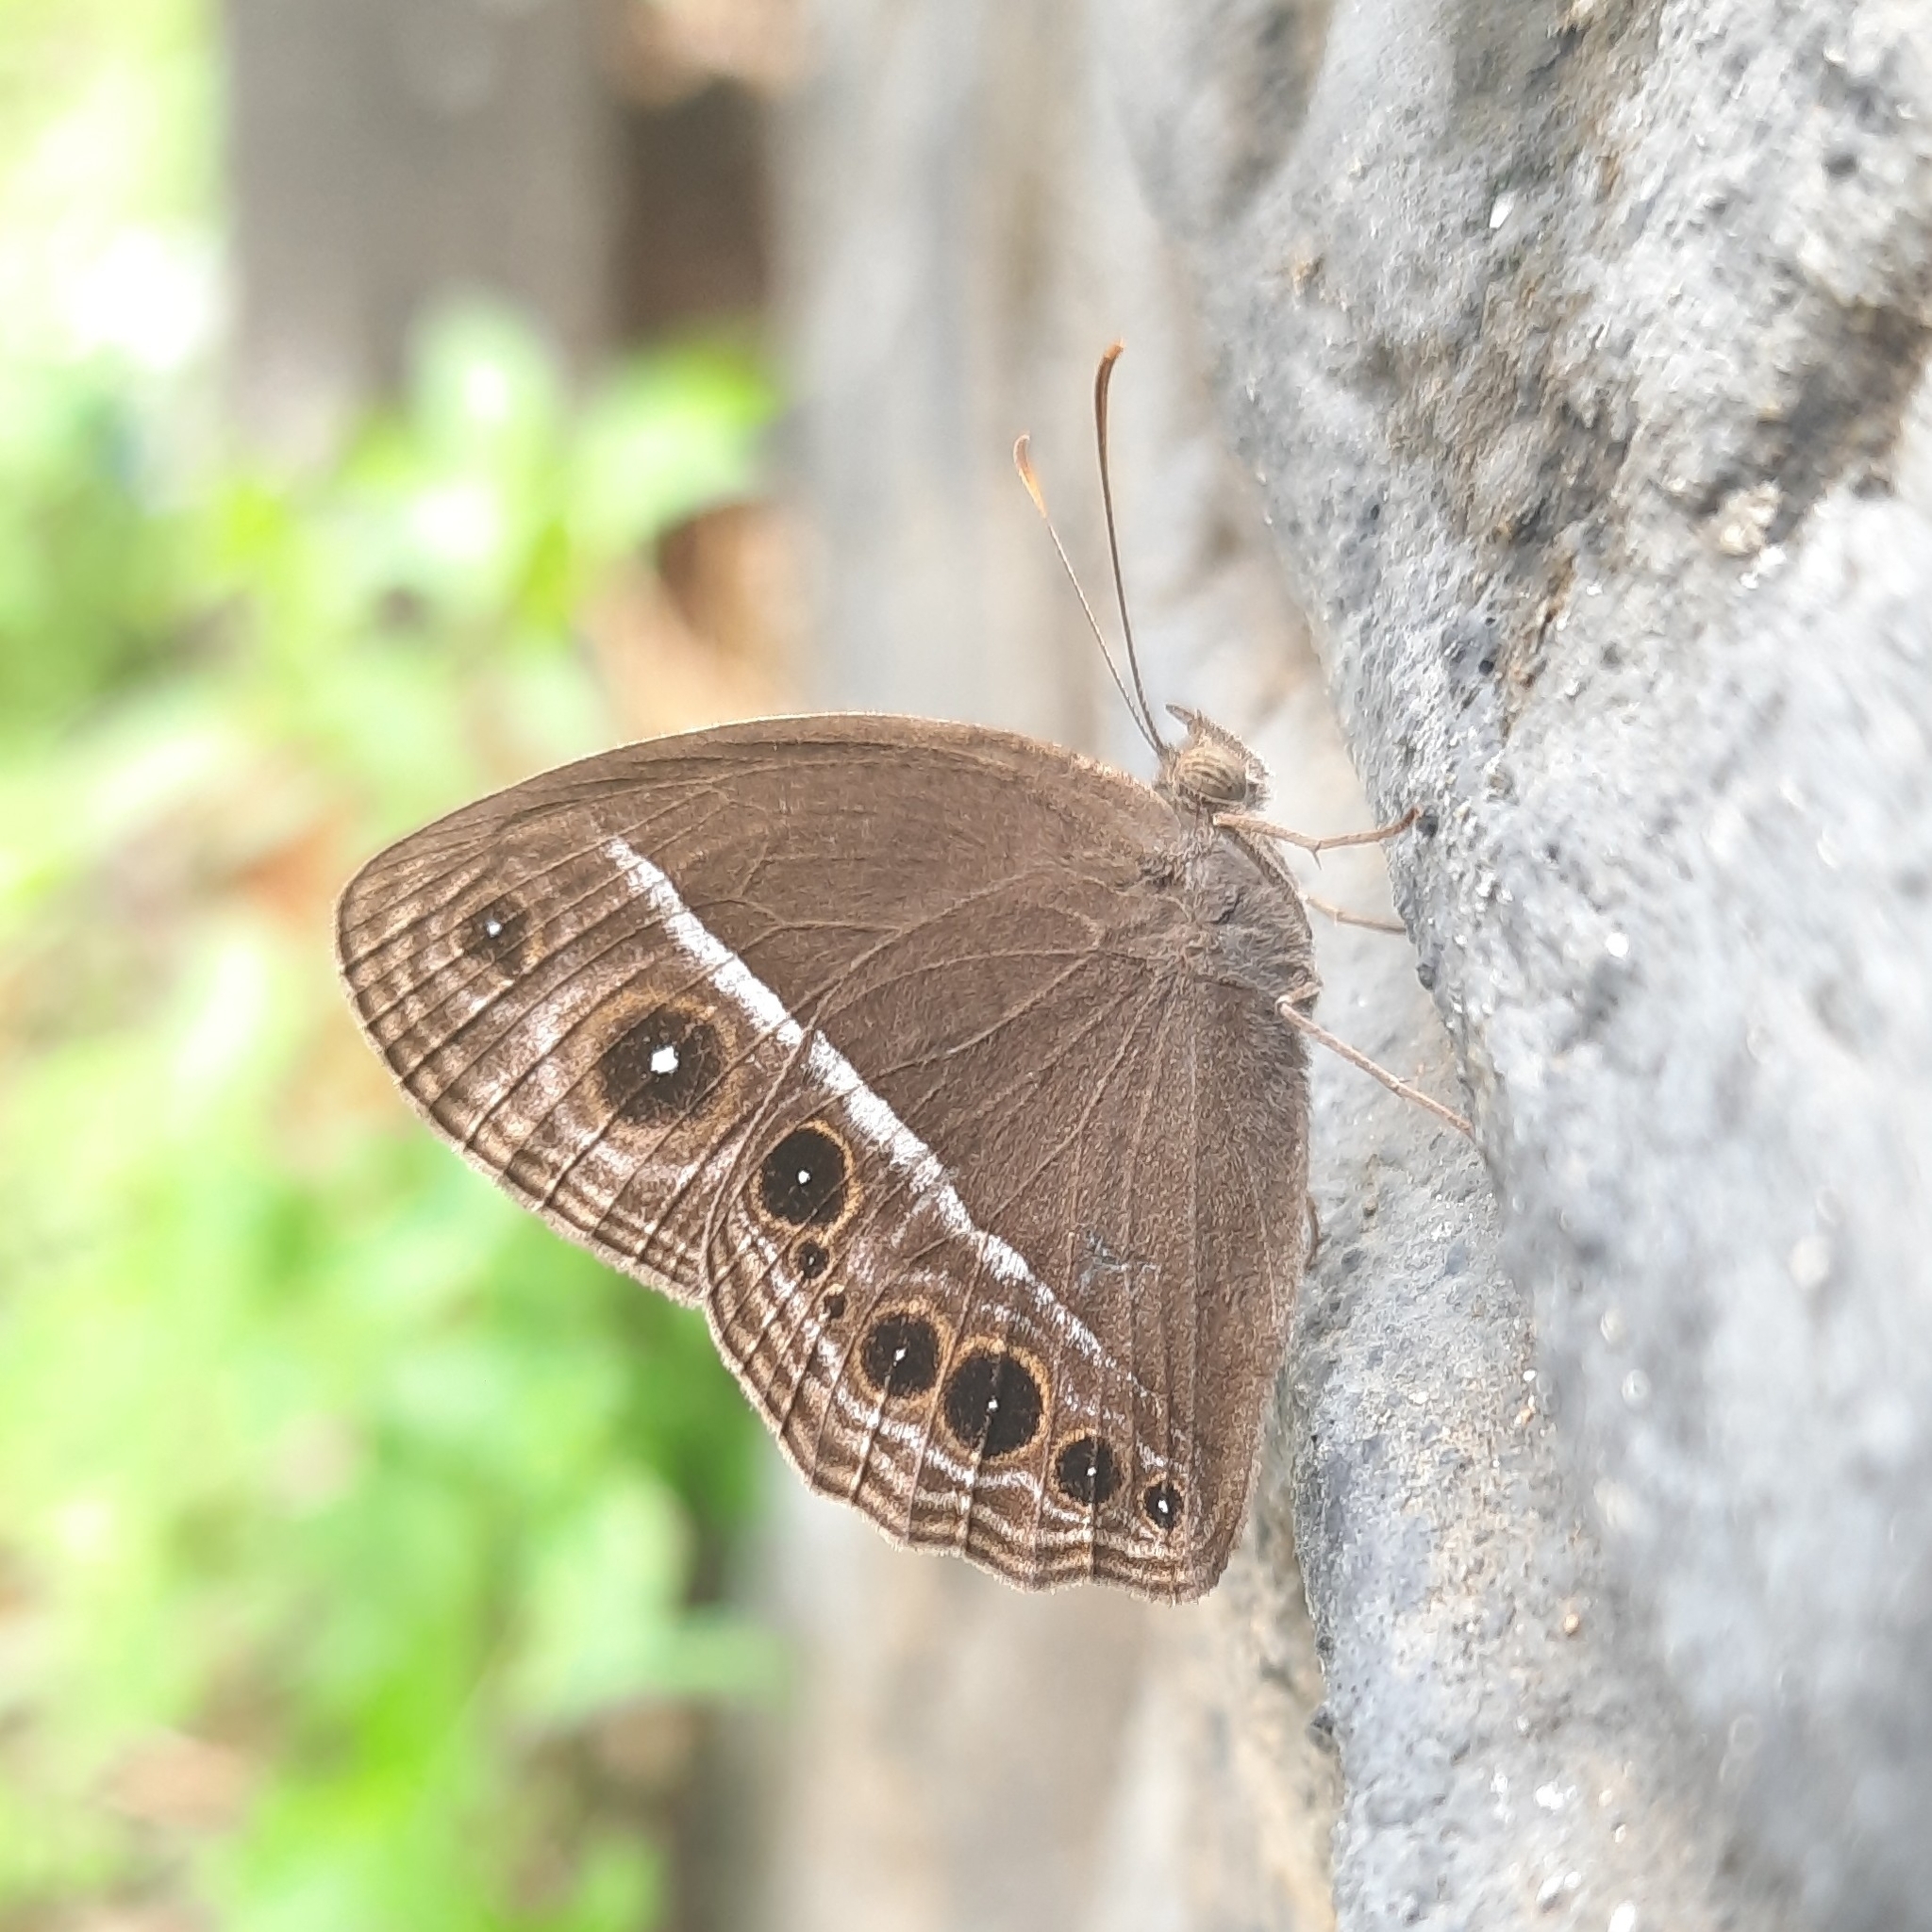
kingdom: Animalia
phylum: Arthropoda
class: Insecta
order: Lepidoptera
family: Nymphalidae
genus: Mycalesis
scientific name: Mycalesis mineus
